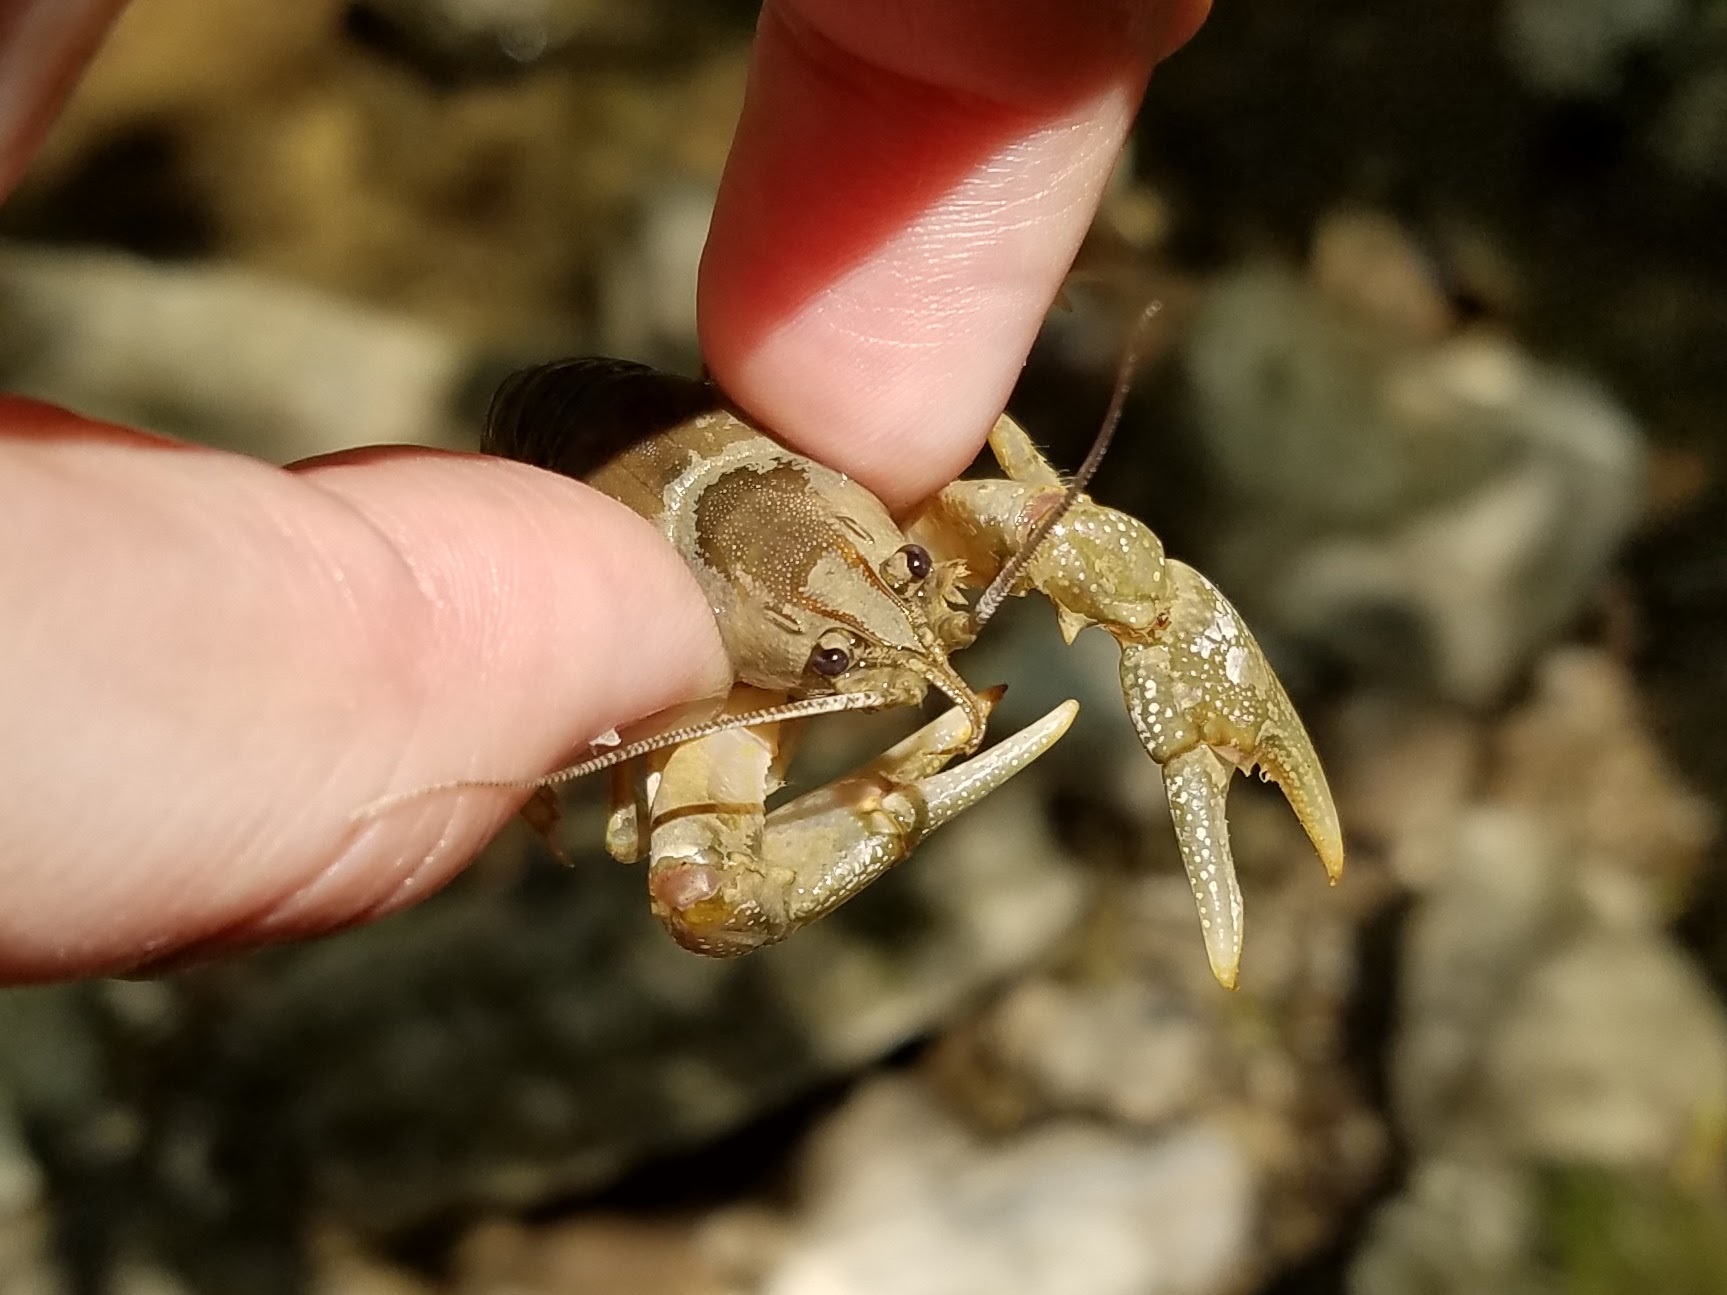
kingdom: Animalia
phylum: Arthropoda
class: Malacostraca
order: Decapoda
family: Cambaridae
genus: Cambarus
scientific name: Cambarus girardianus
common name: Tanback crayfish
